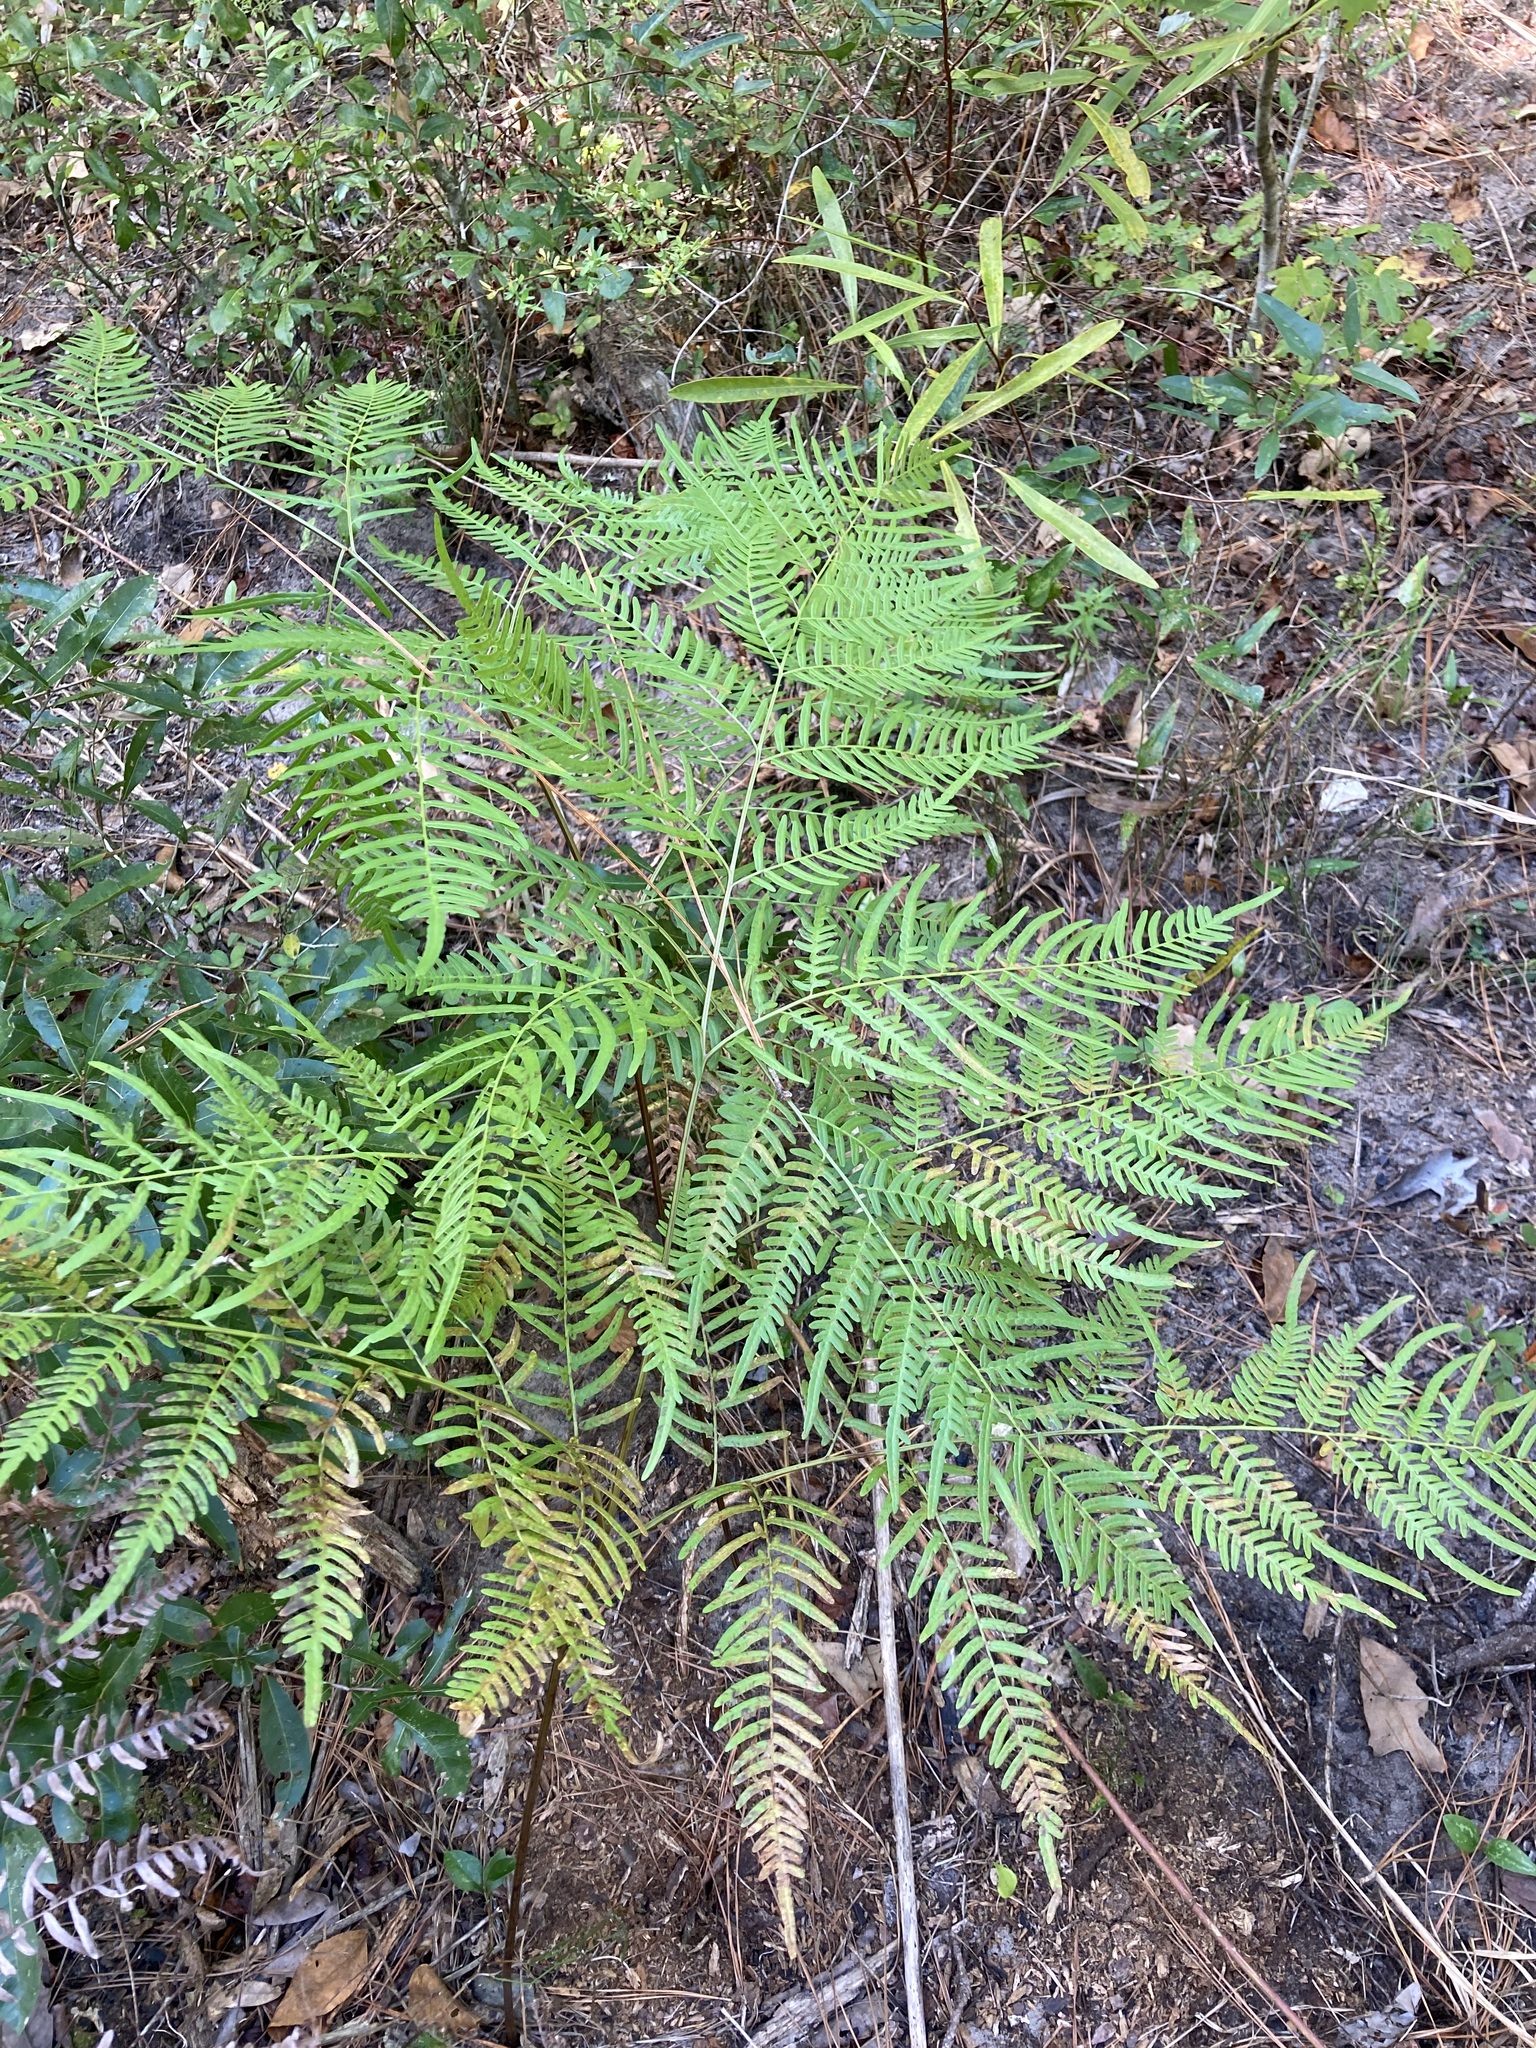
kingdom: Plantae
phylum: Tracheophyta
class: Polypodiopsida
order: Polypodiales
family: Dennstaedtiaceae
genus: Pteridium
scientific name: Pteridium
